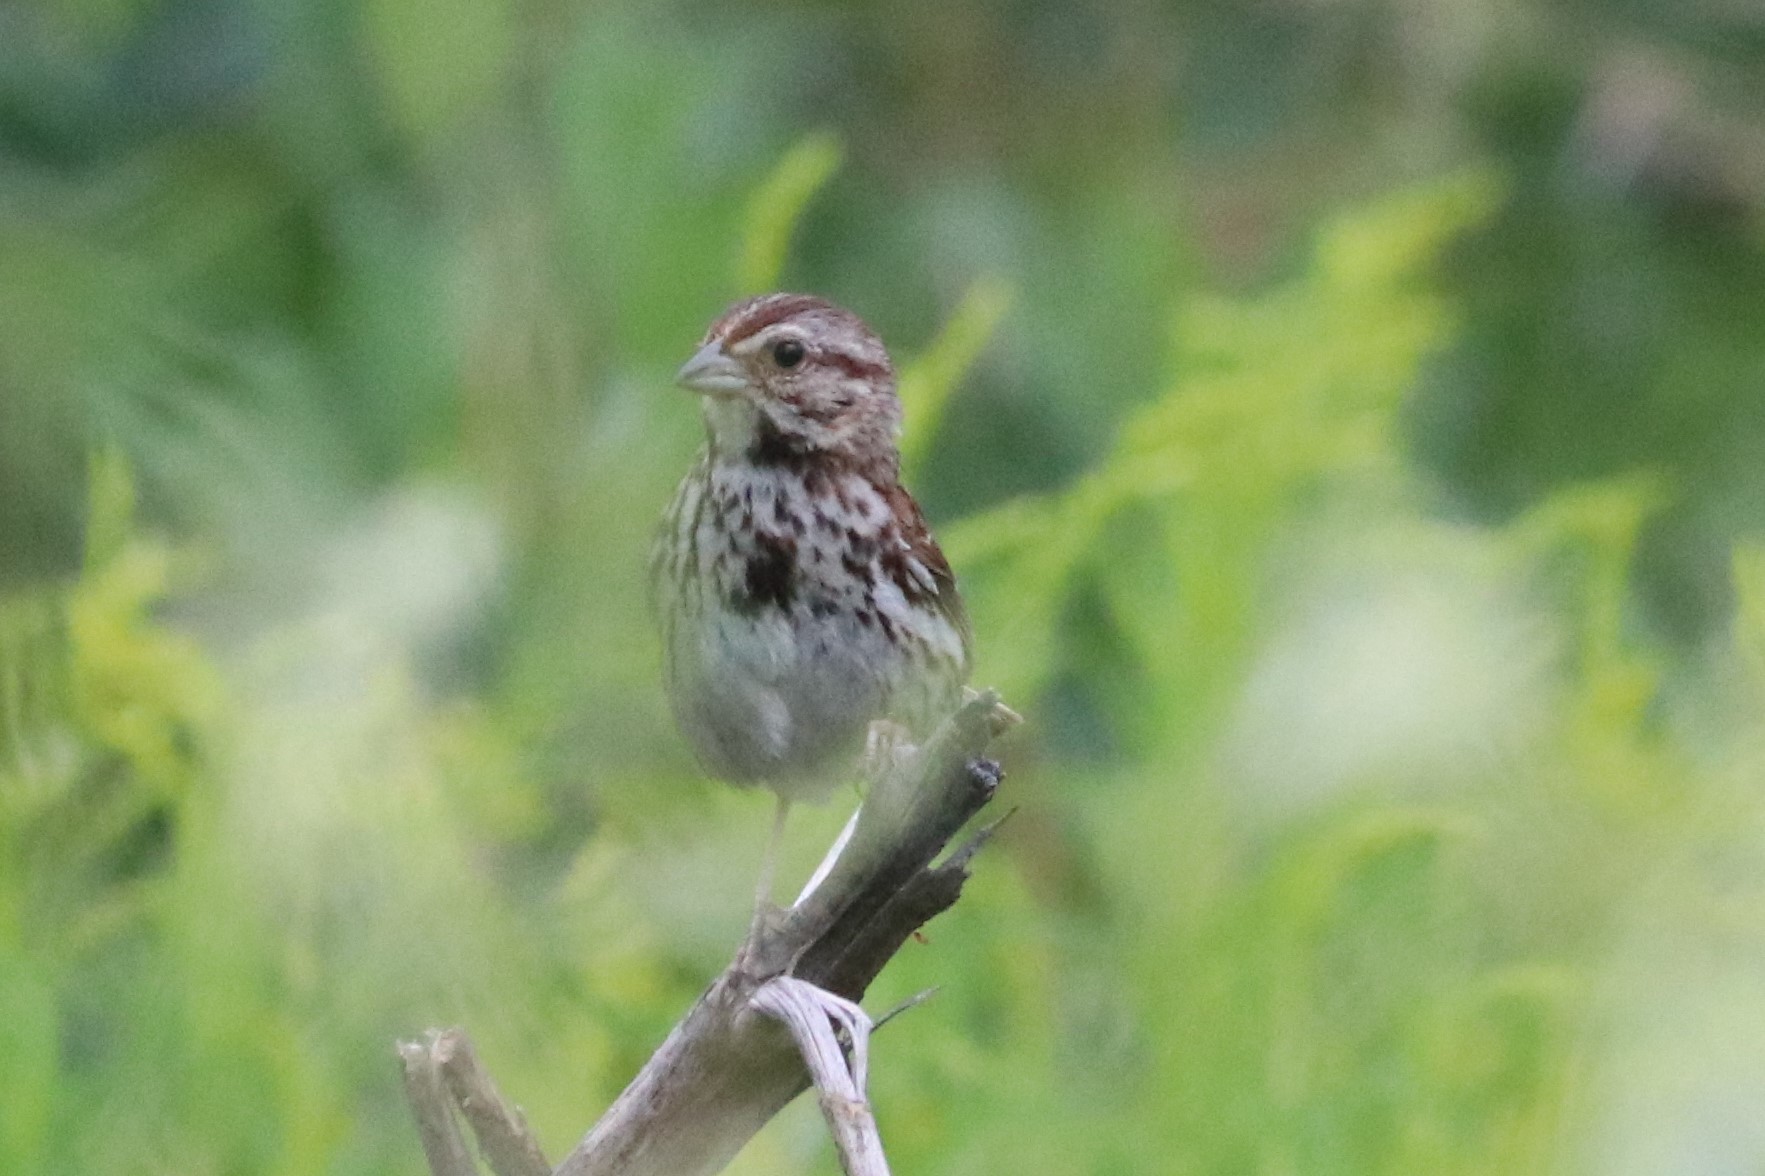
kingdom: Animalia
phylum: Chordata
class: Aves
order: Passeriformes
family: Passerellidae
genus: Melospiza
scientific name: Melospiza melodia
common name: Song sparrow
